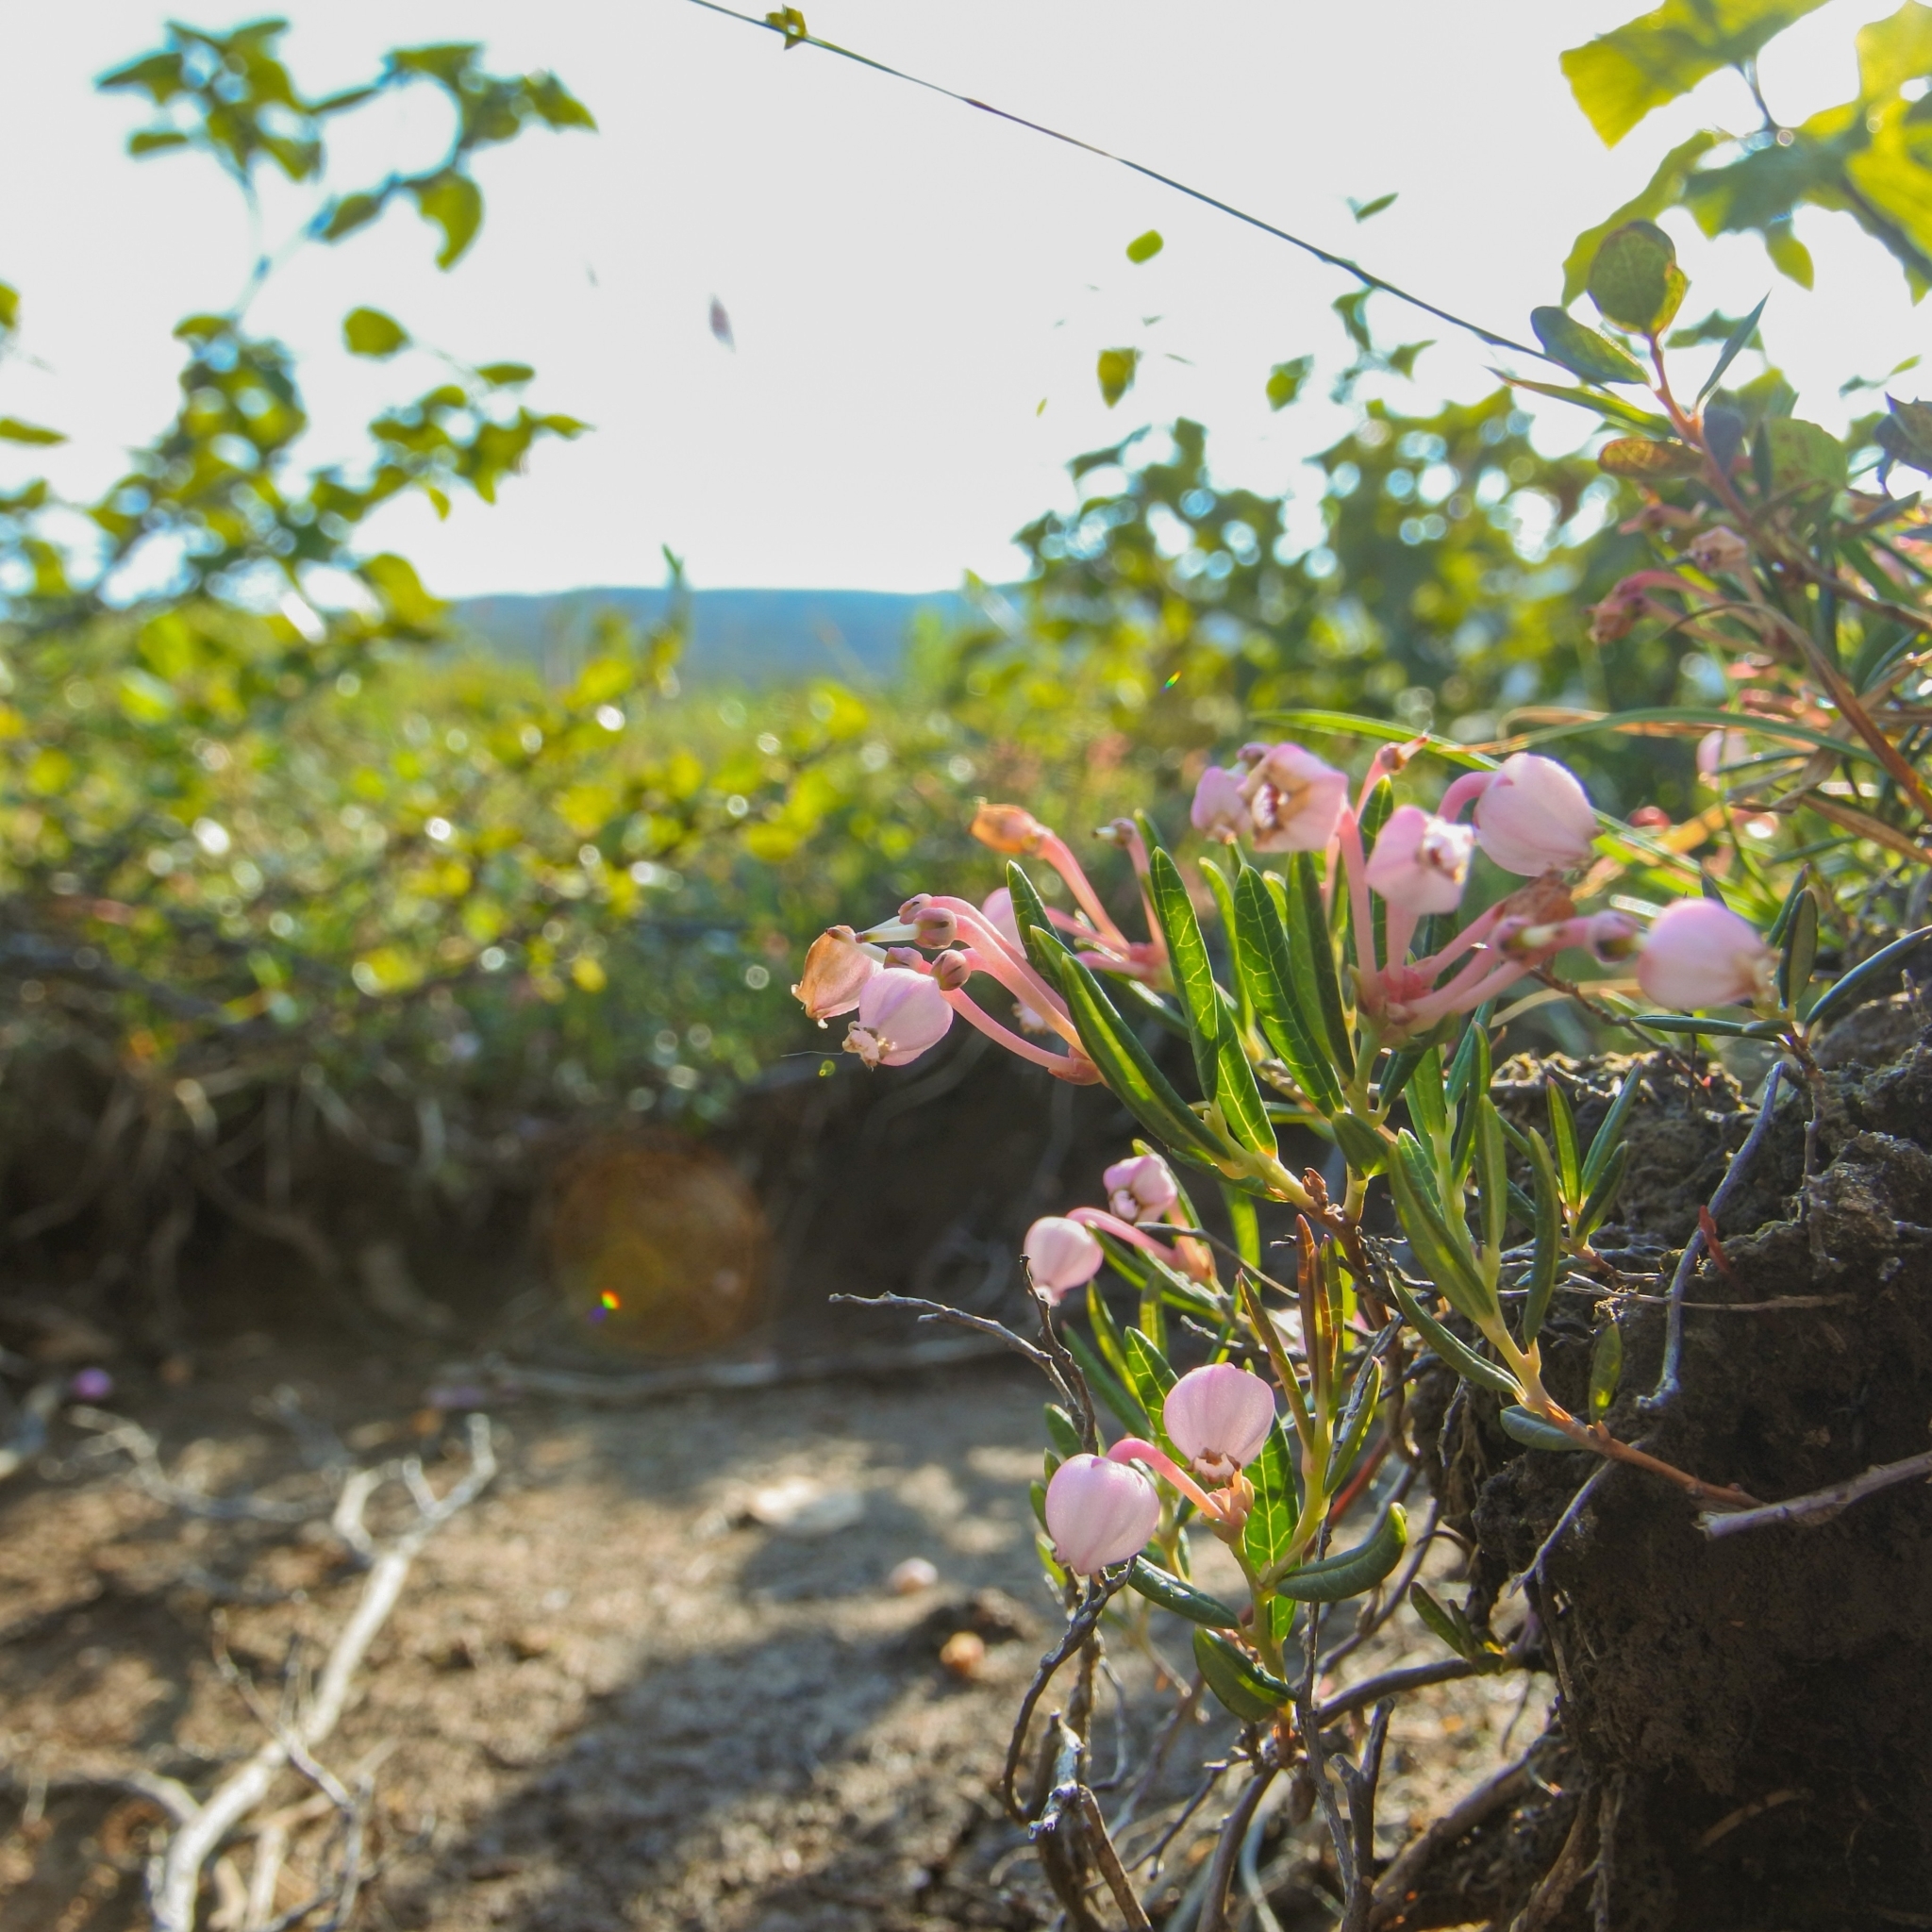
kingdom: Plantae
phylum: Tracheophyta
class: Magnoliopsida
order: Ericales
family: Ericaceae
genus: Andromeda
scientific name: Andromeda polifolia
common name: Bog-rosemary
